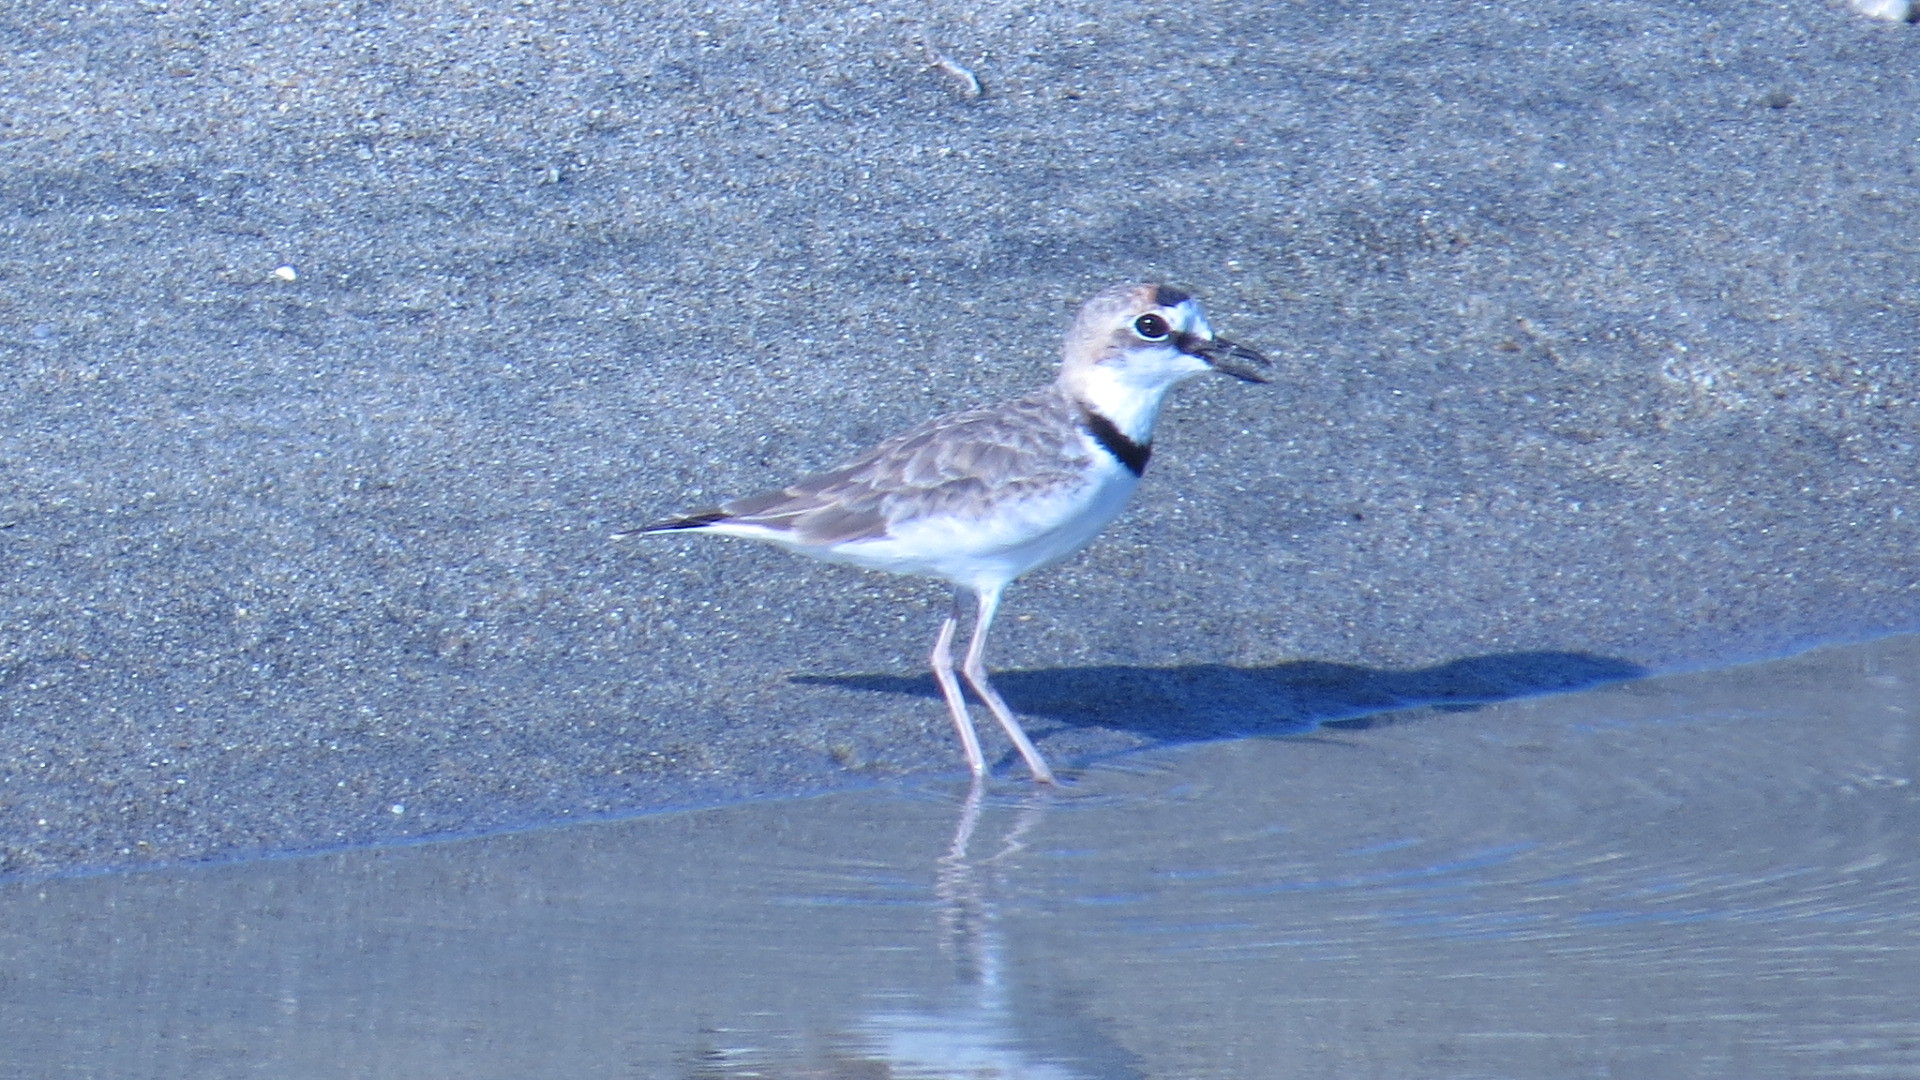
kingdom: Animalia
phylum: Chordata
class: Aves
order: Charadriiformes
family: Charadriidae
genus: Anarhynchus
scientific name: Anarhynchus
